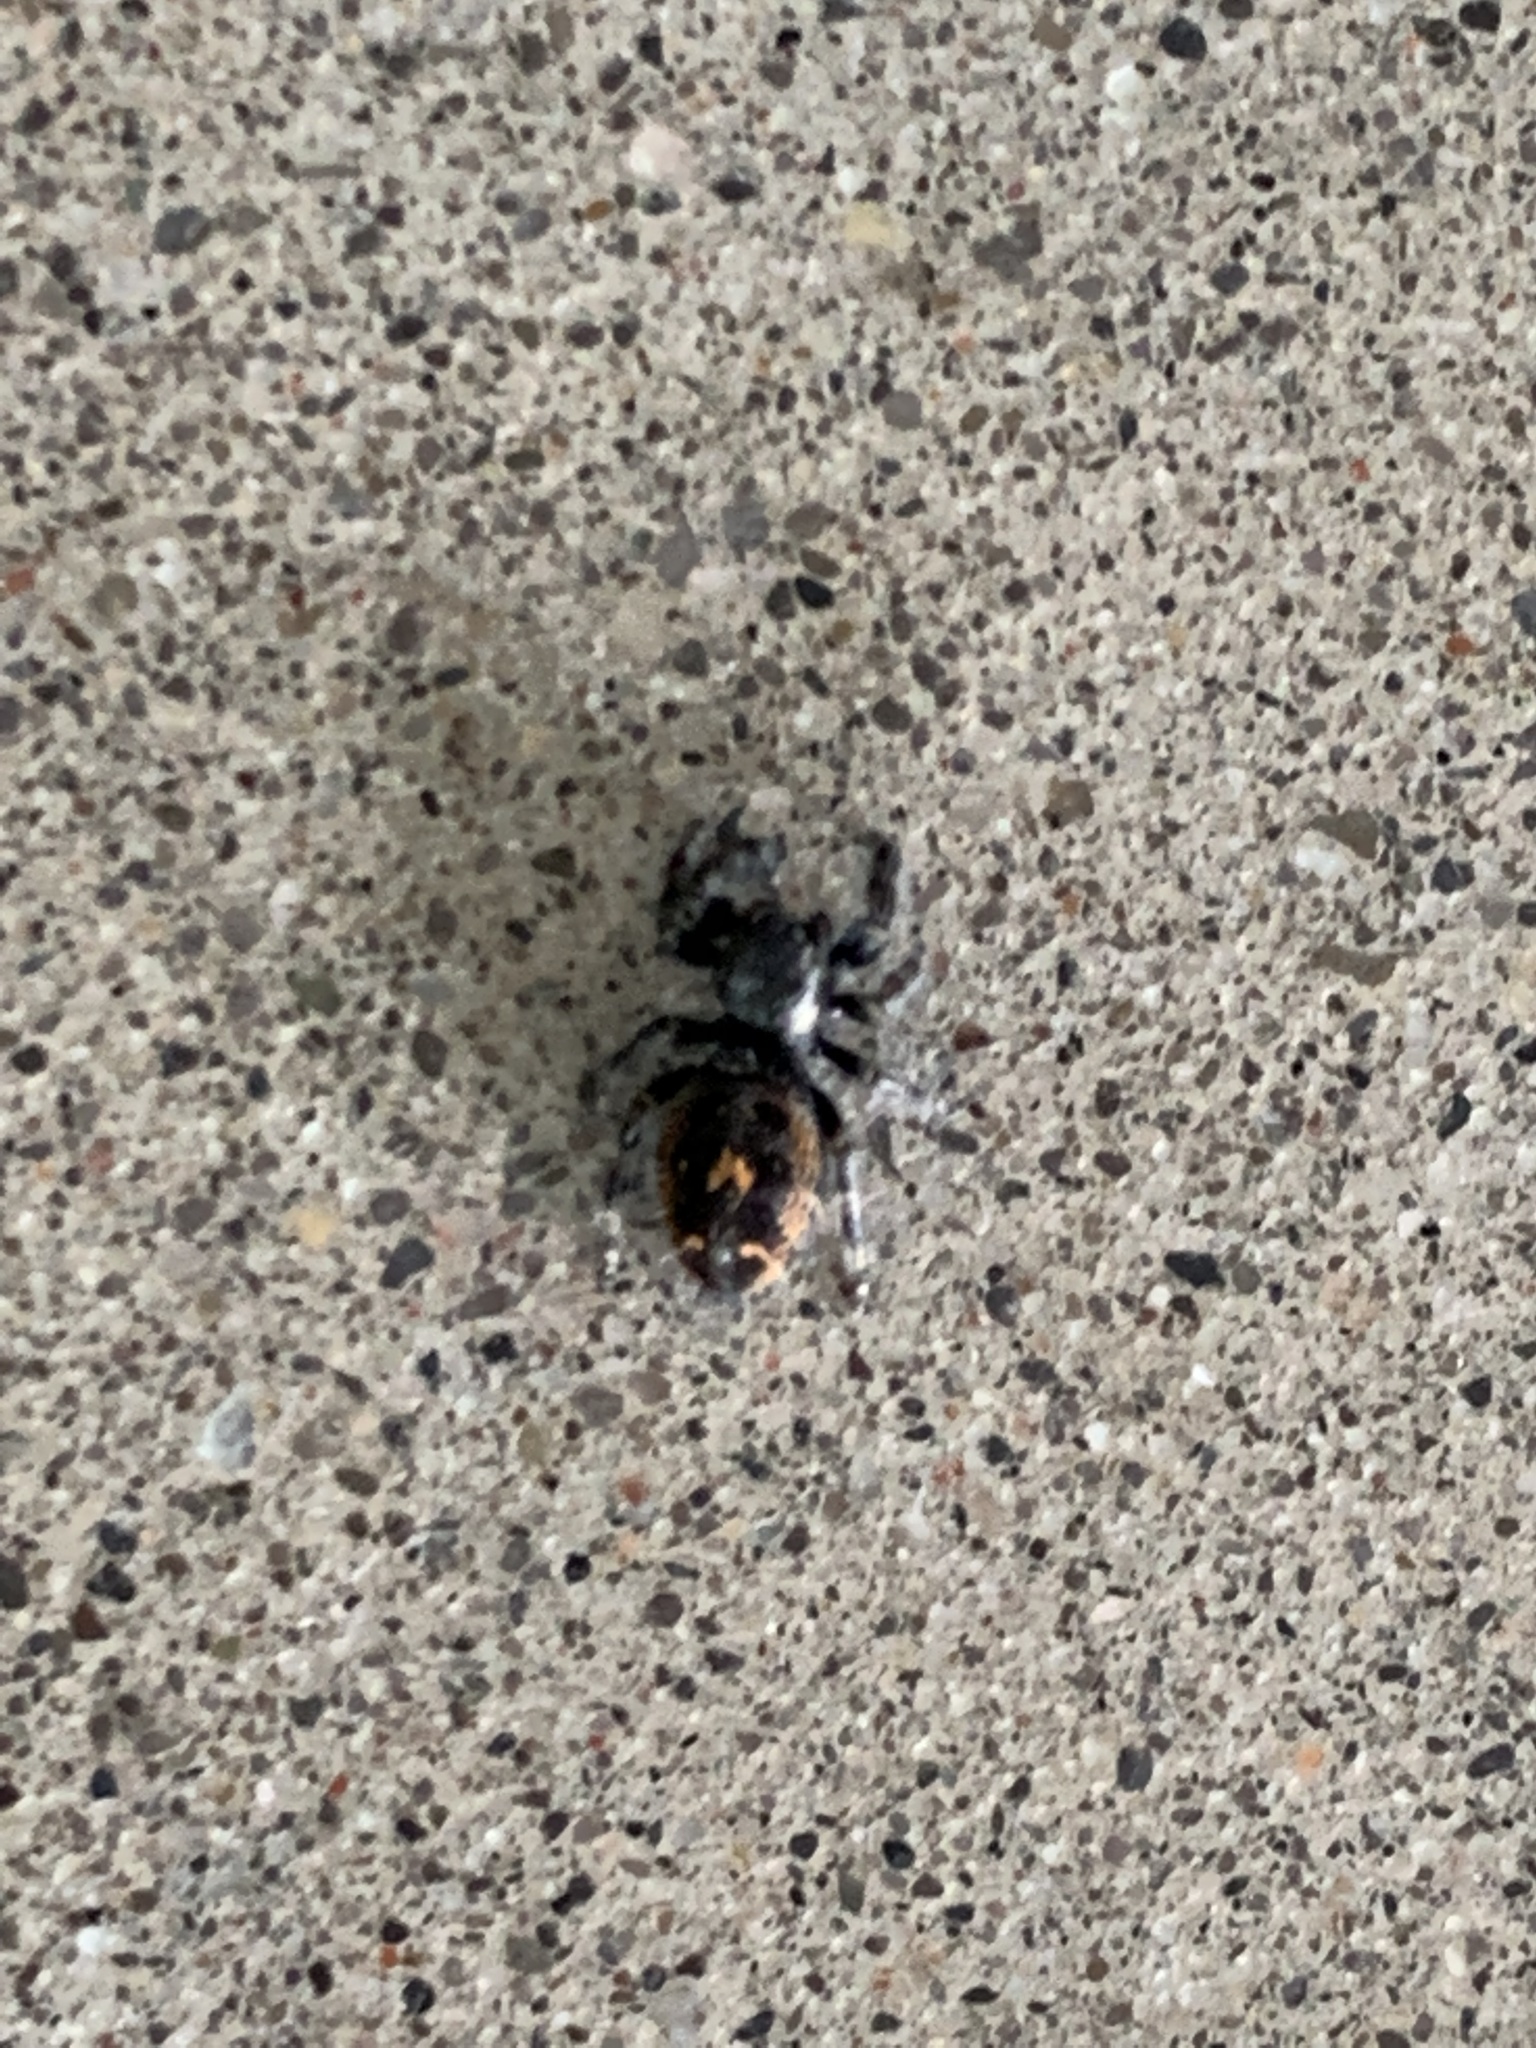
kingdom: Animalia
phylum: Arthropoda
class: Arachnida
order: Araneae
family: Salticidae
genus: Phidippus
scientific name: Phidippus audax
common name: Bold jumper
